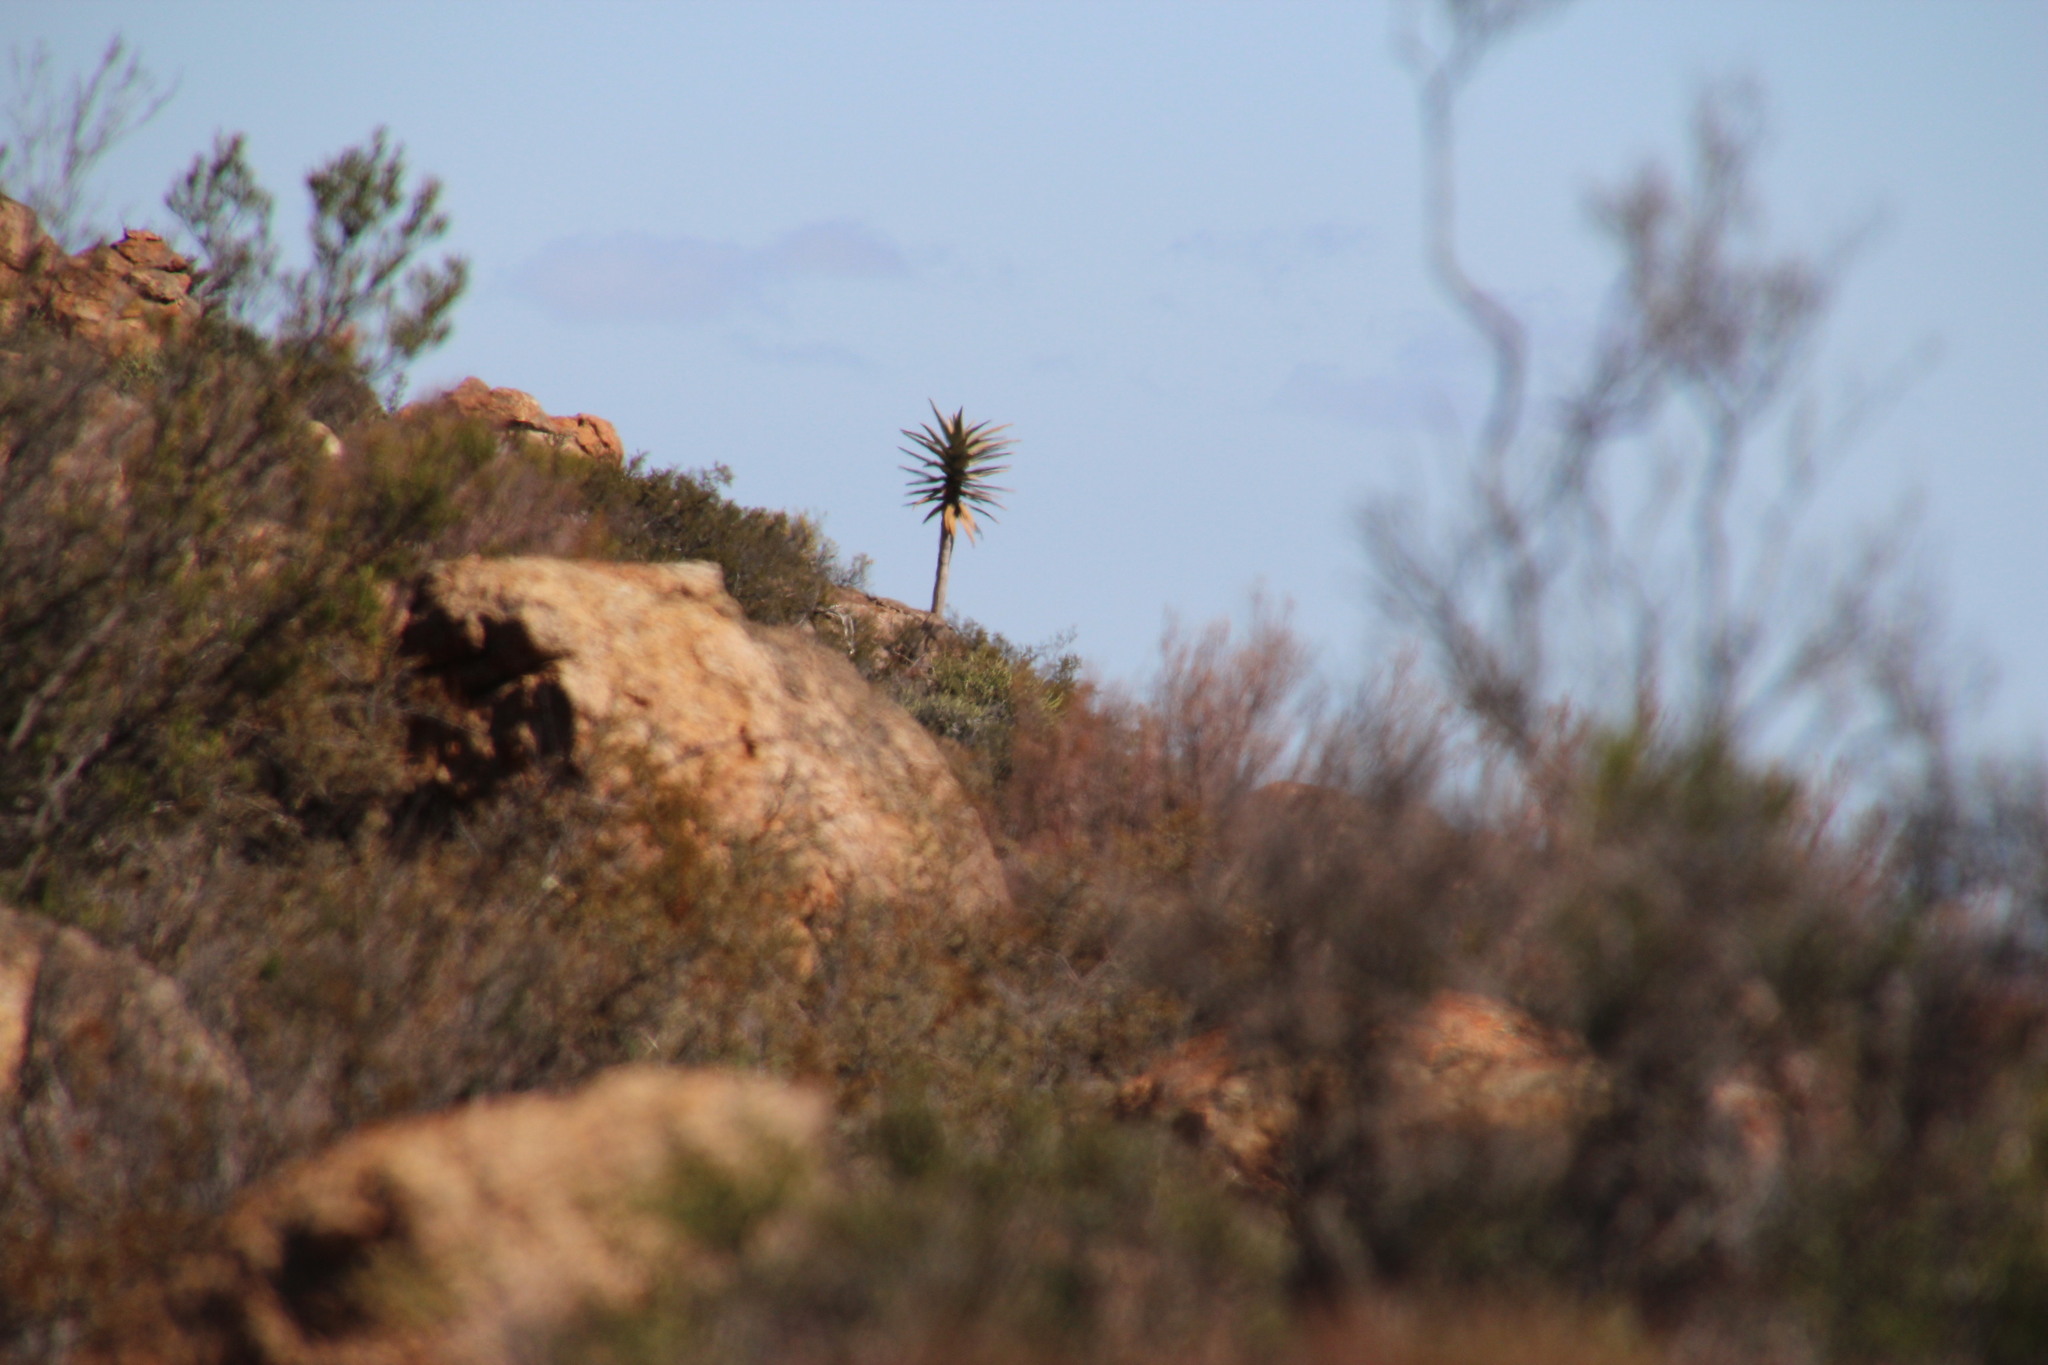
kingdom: Plantae
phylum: Tracheophyta
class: Liliopsida
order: Asparagales
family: Asphodelaceae
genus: Aloidendron
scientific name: Aloidendron dichotomum
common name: Quiver tree
